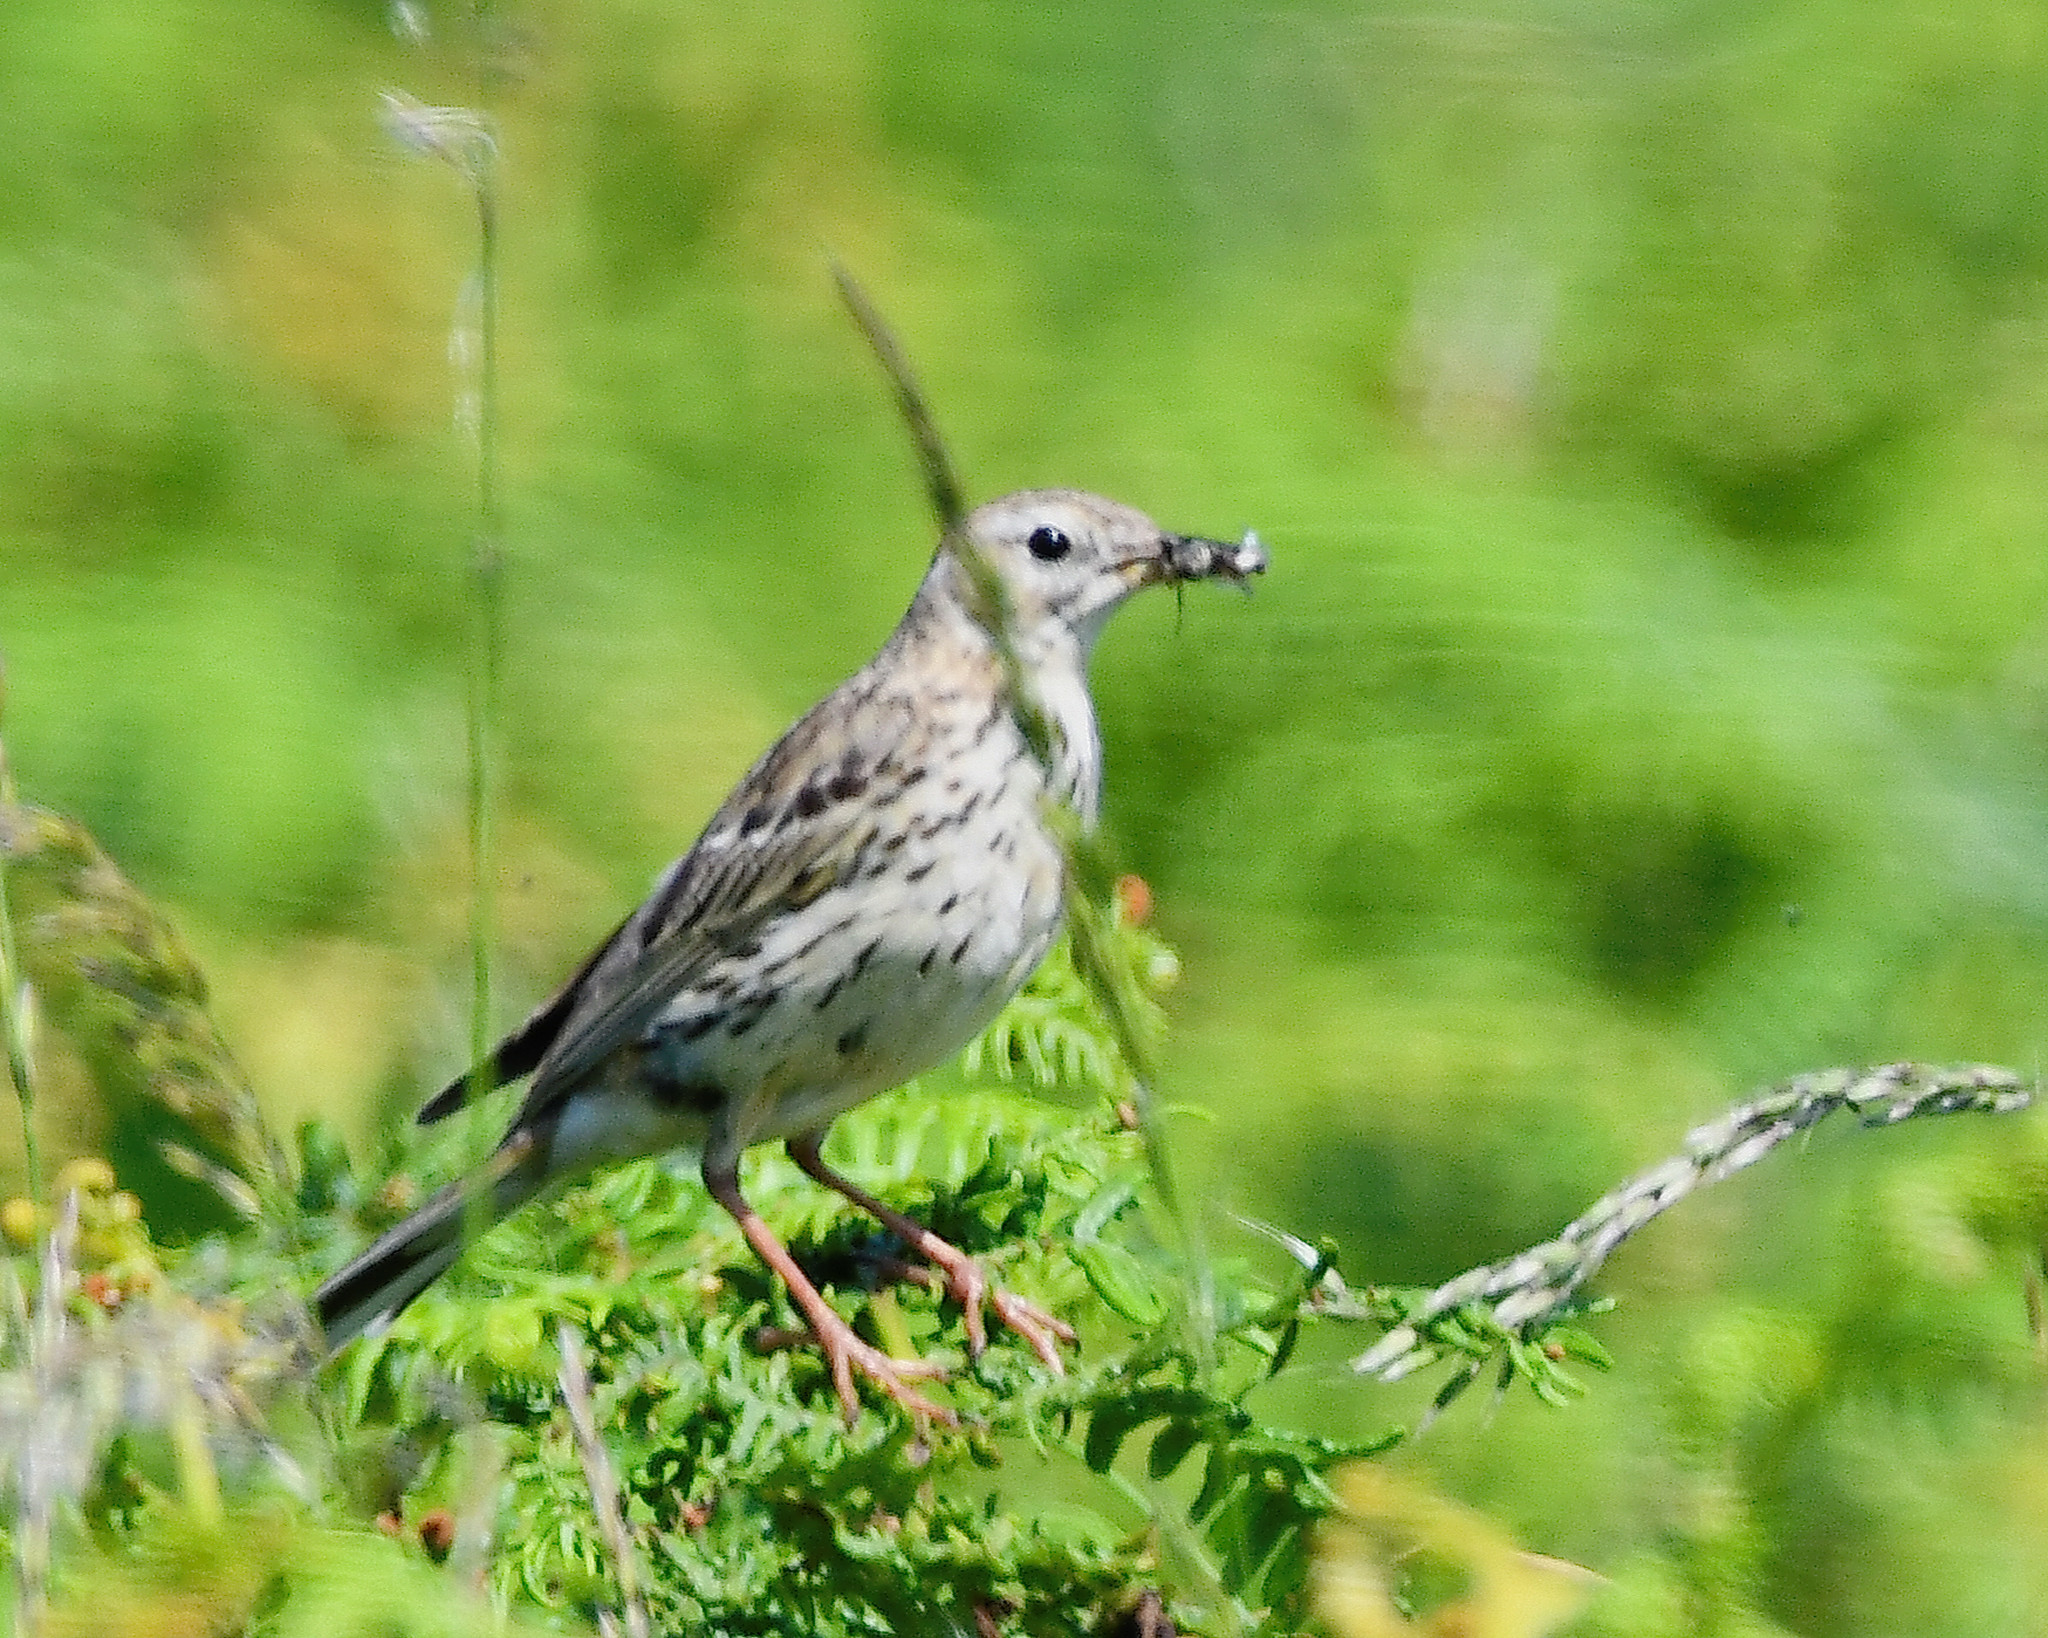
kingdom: Animalia
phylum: Chordata
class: Aves
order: Passeriformes
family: Motacillidae
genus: Anthus
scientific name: Anthus pratensis
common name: Meadow pipit
